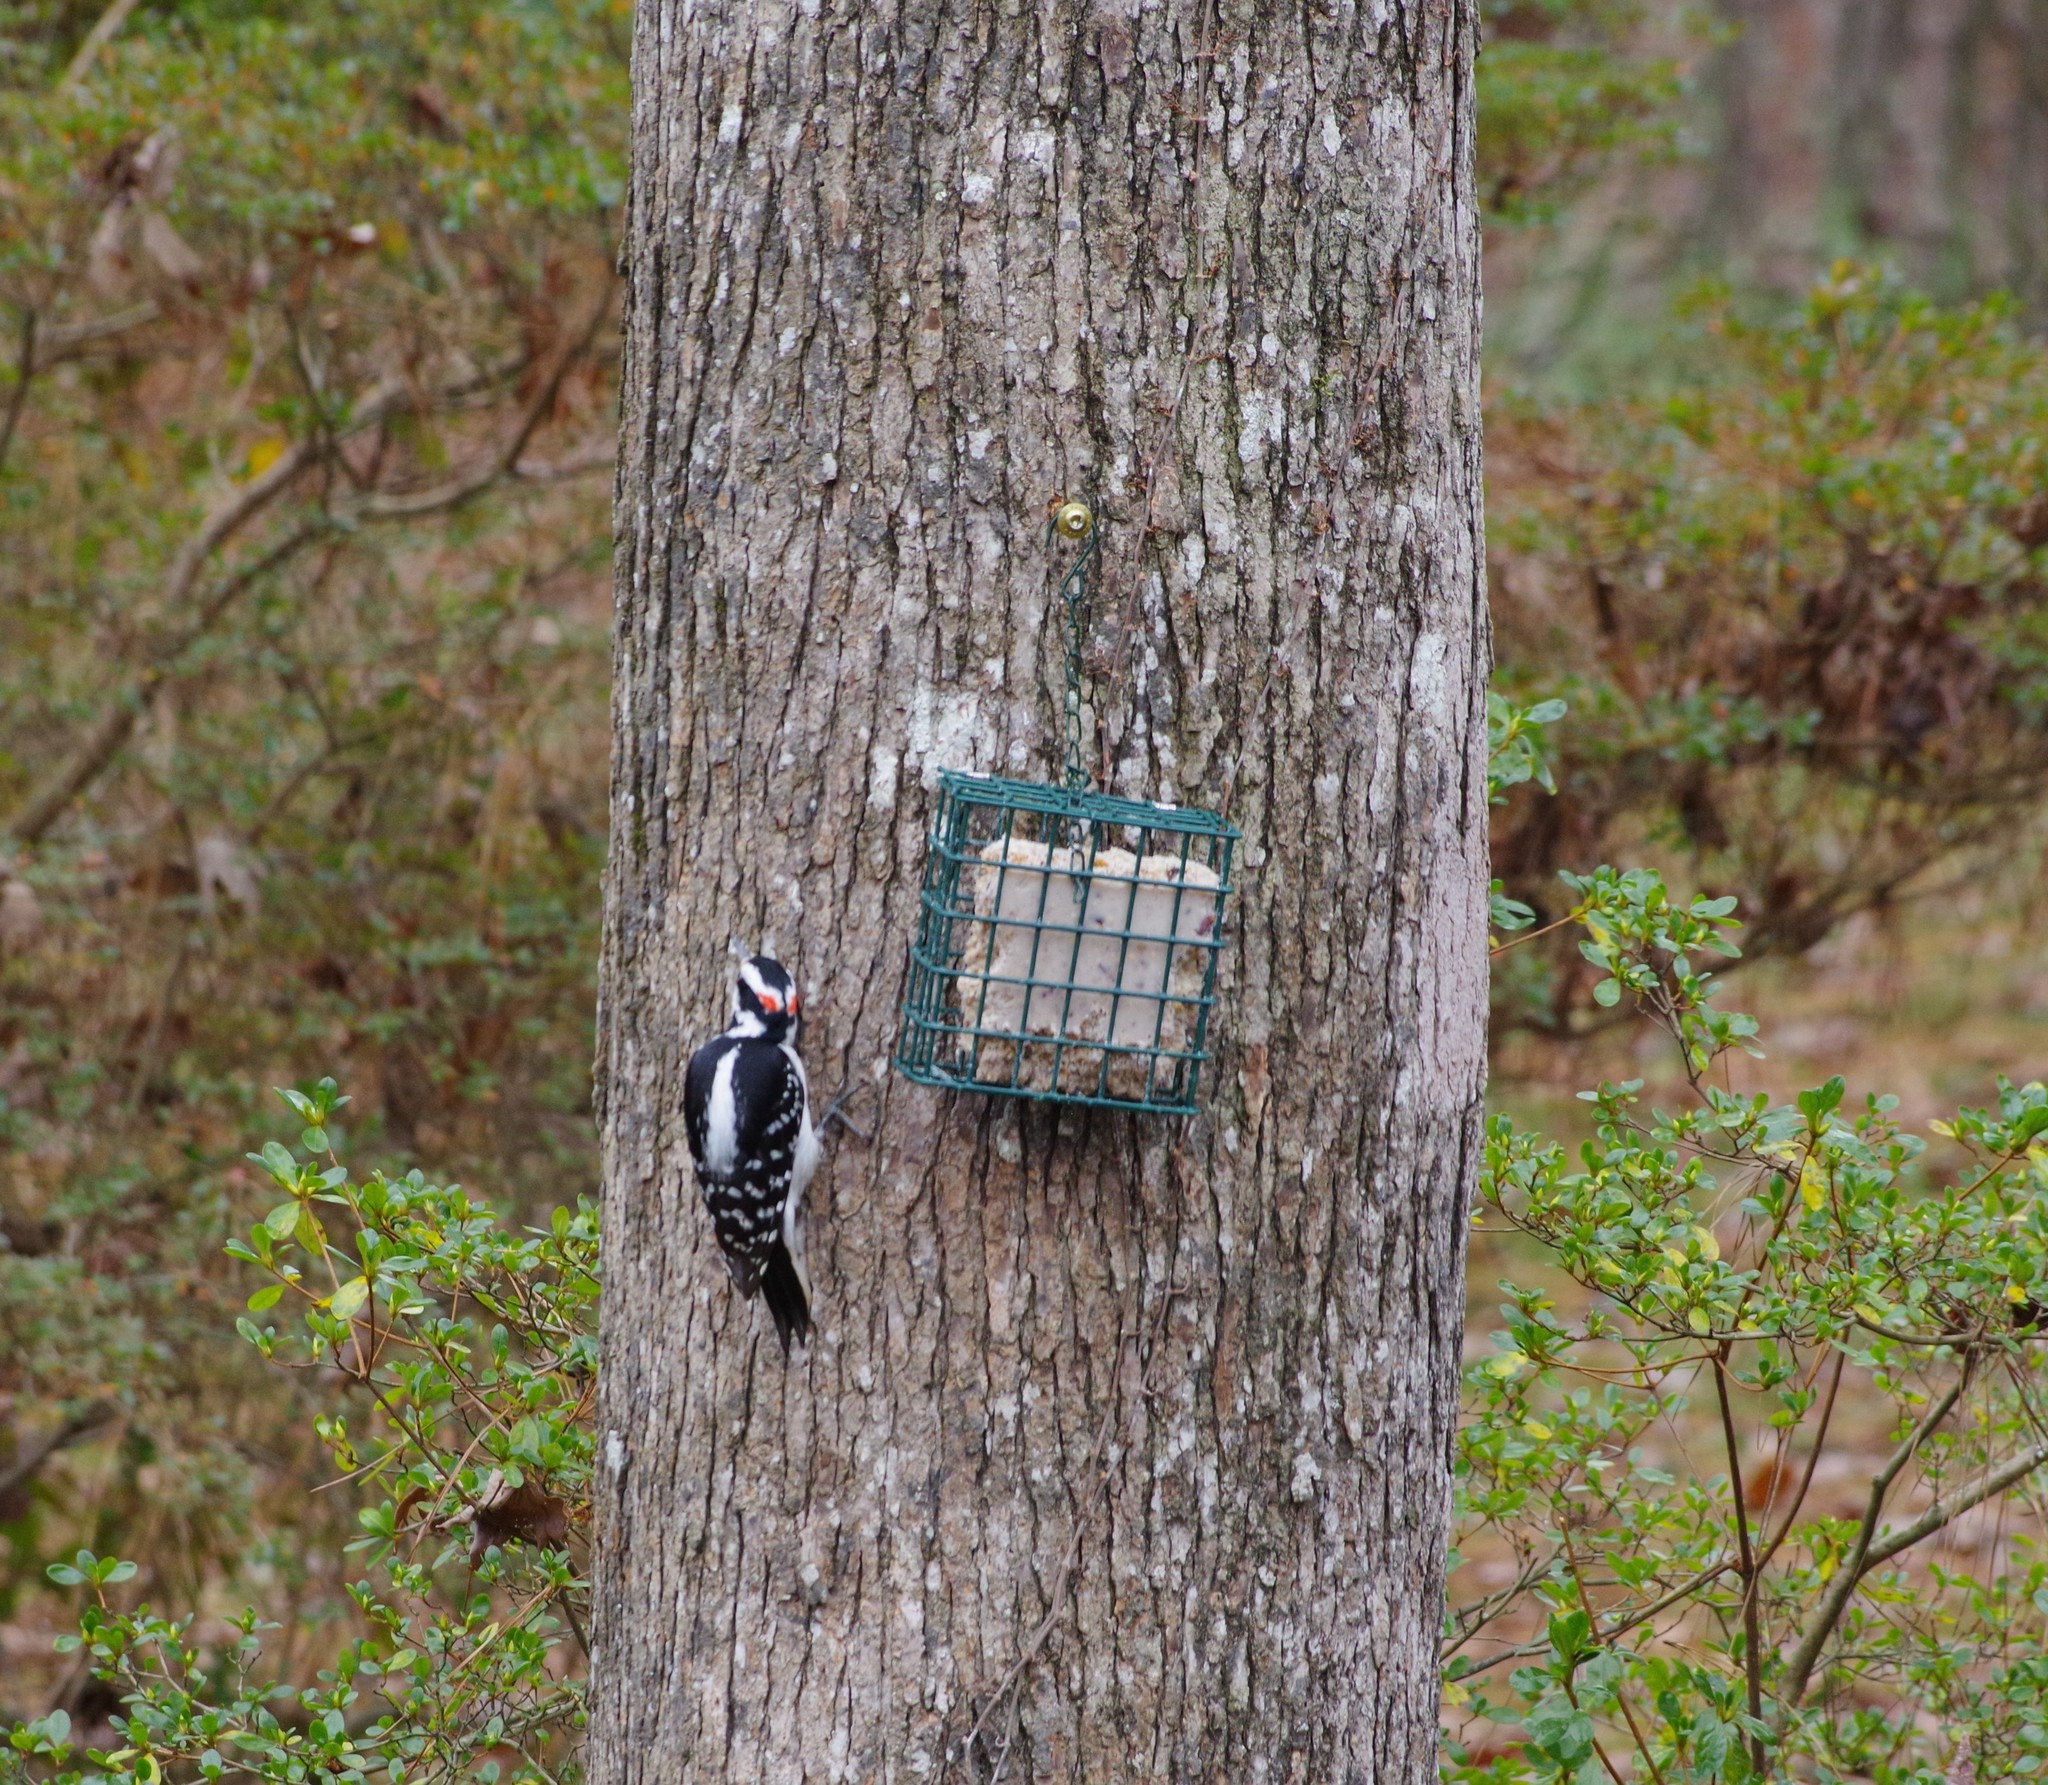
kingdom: Animalia
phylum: Chordata
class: Aves
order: Piciformes
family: Picidae
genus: Leuconotopicus
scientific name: Leuconotopicus villosus
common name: Hairy woodpecker
